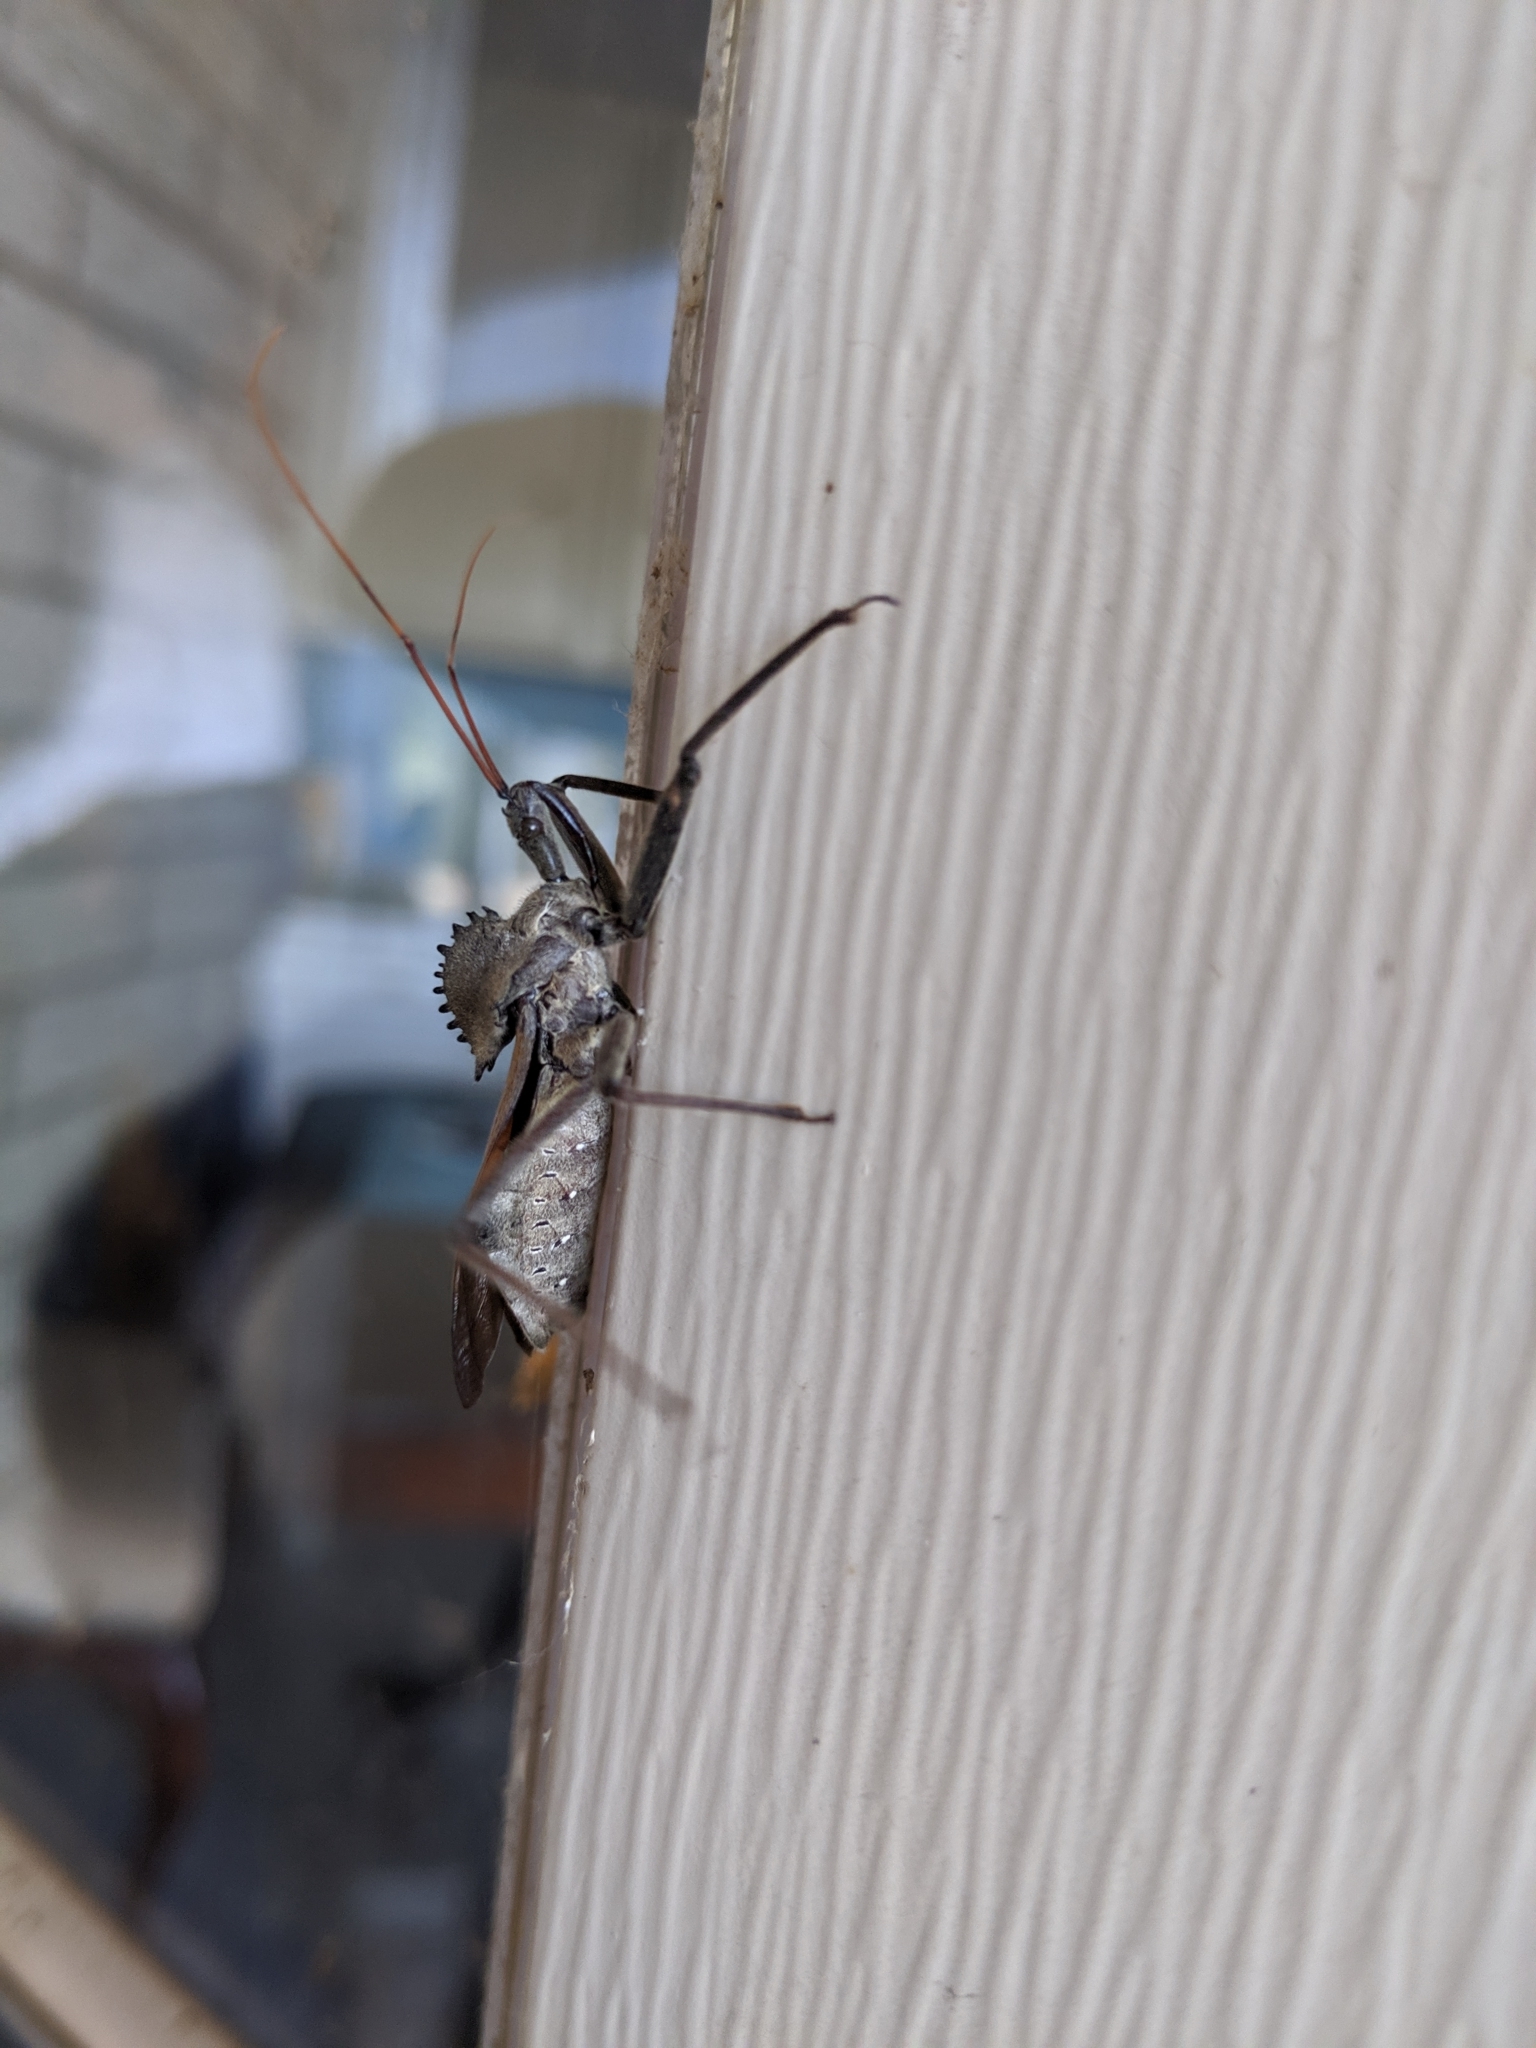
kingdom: Animalia
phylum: Arthropoda
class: Insecta
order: Hemiptera
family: Reduviidae
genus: Arilus
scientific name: Arilus cristatus
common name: North american wheel bug
